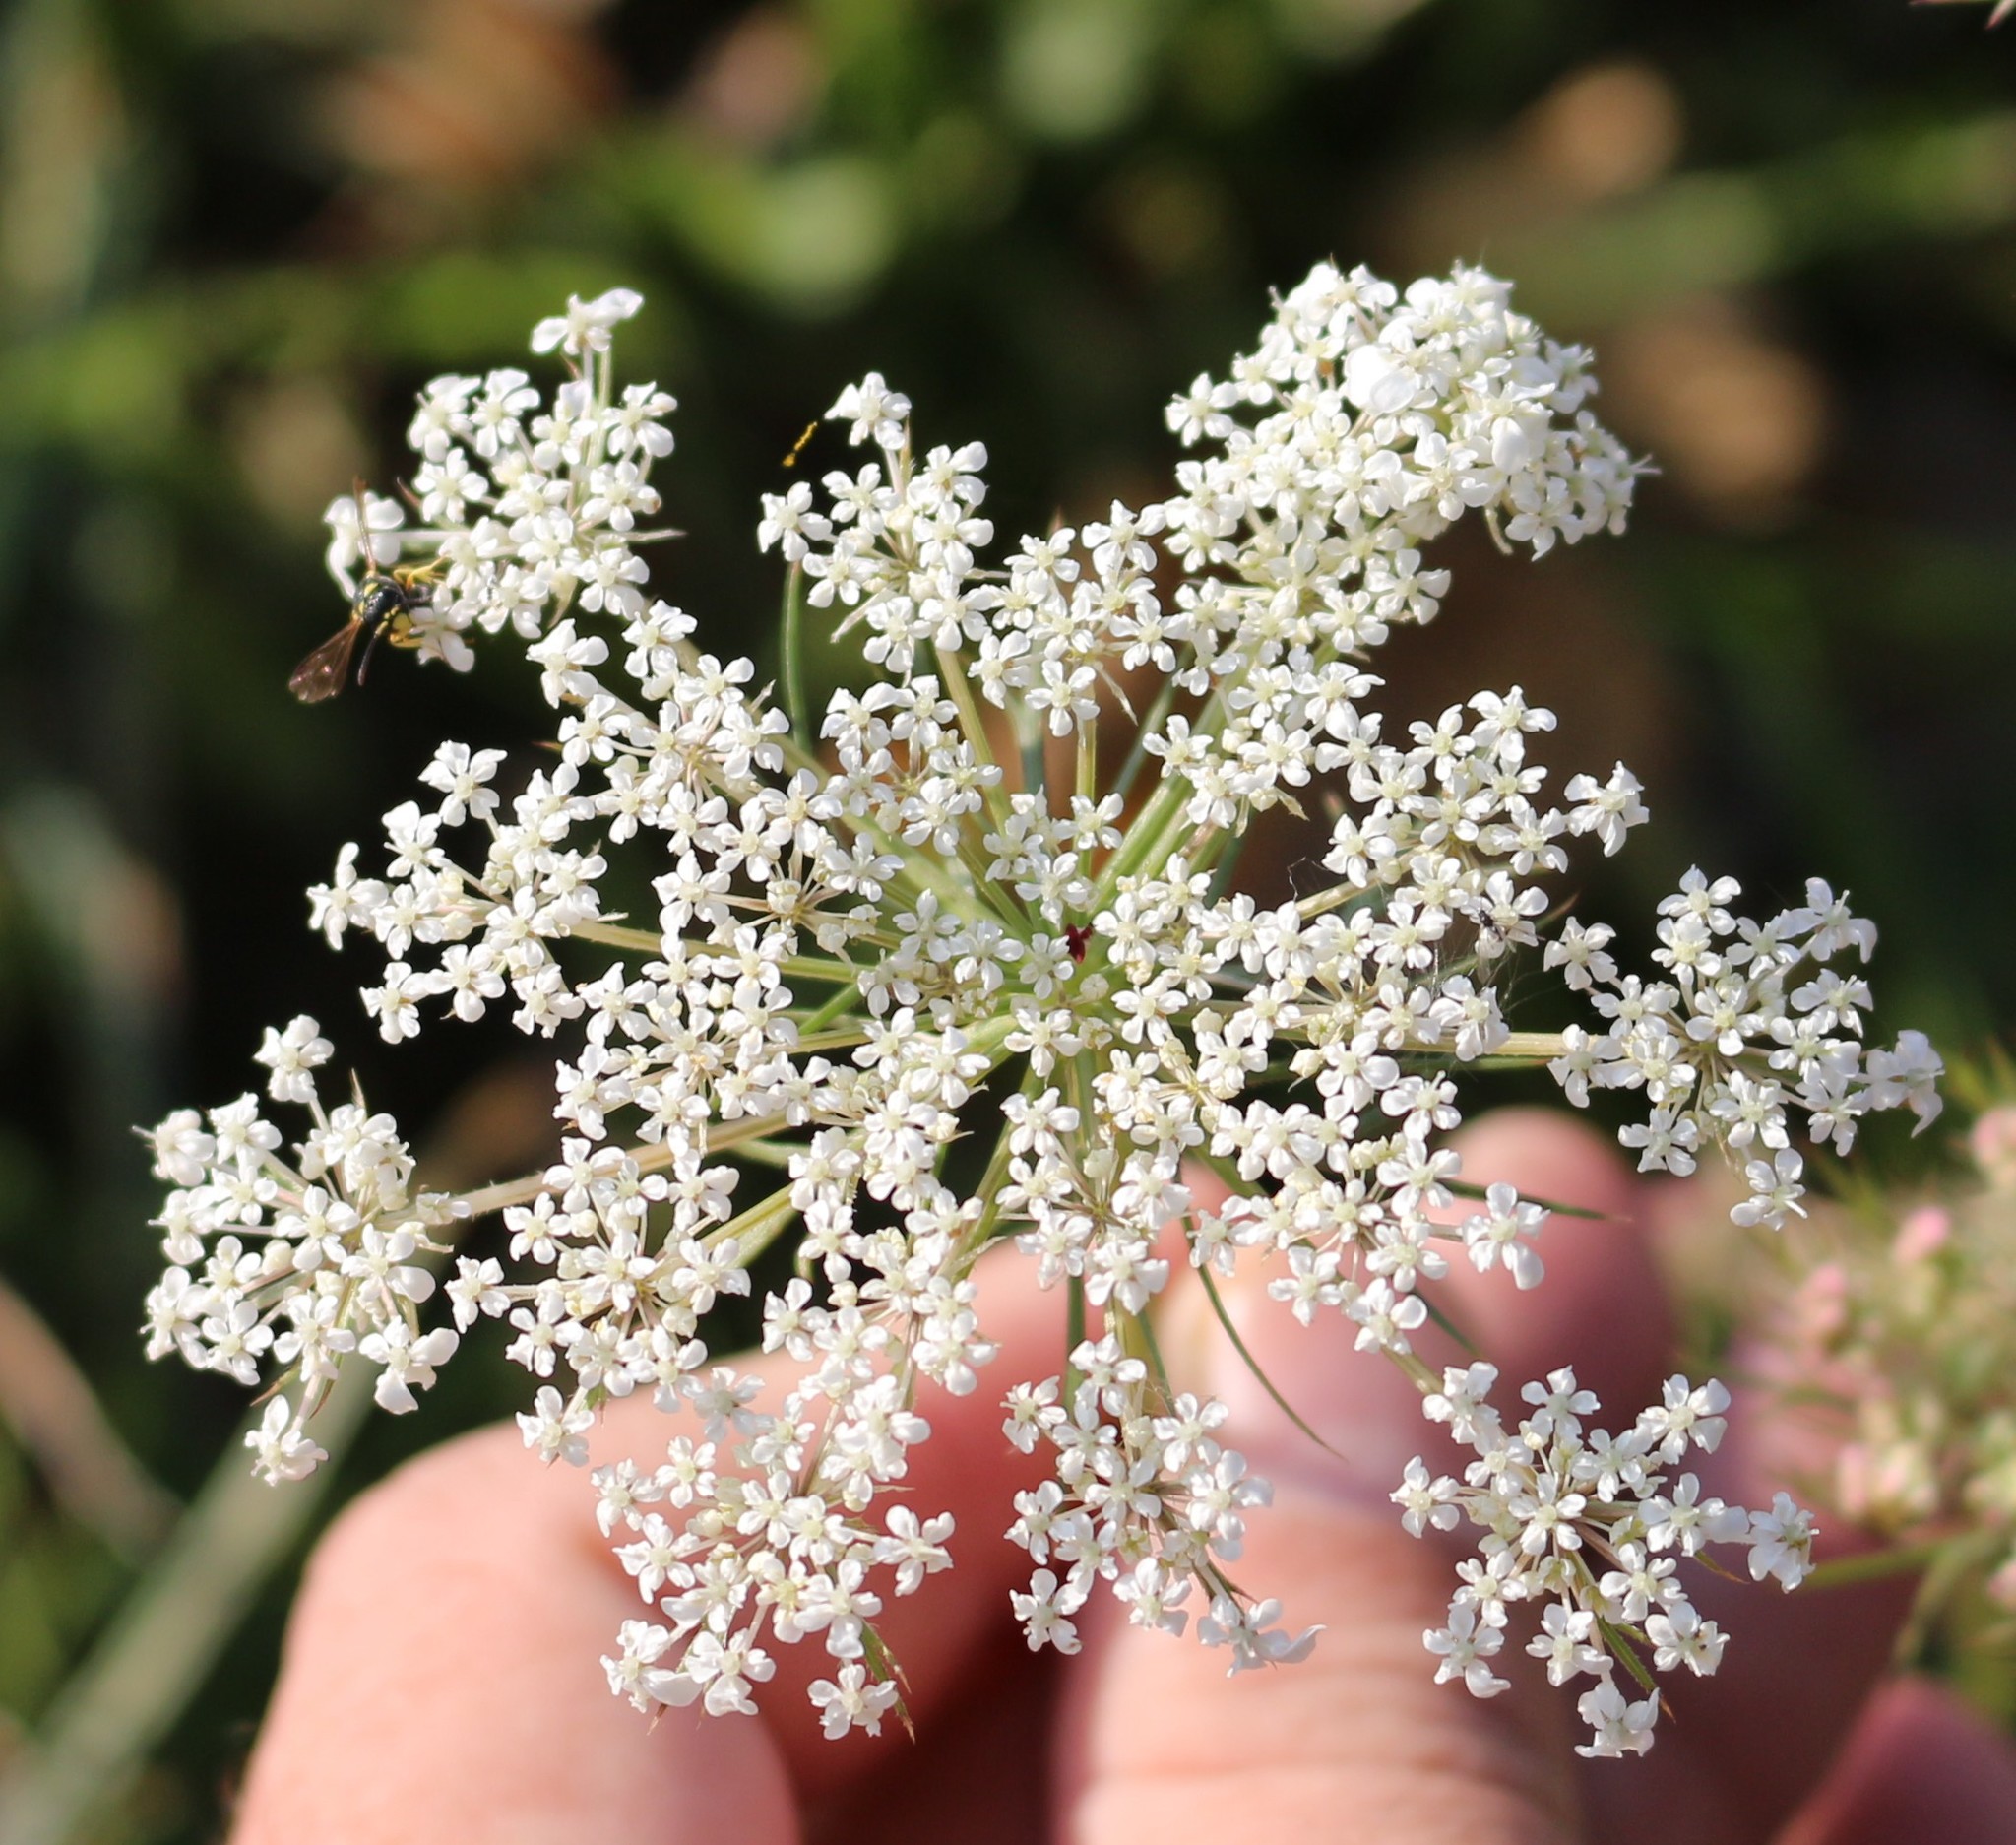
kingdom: Plantae
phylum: Tracheophyta
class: Magnoliopsida
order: Apiales
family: Apiaceae
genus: Daucus
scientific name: Daucus carota
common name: Wild carrot
